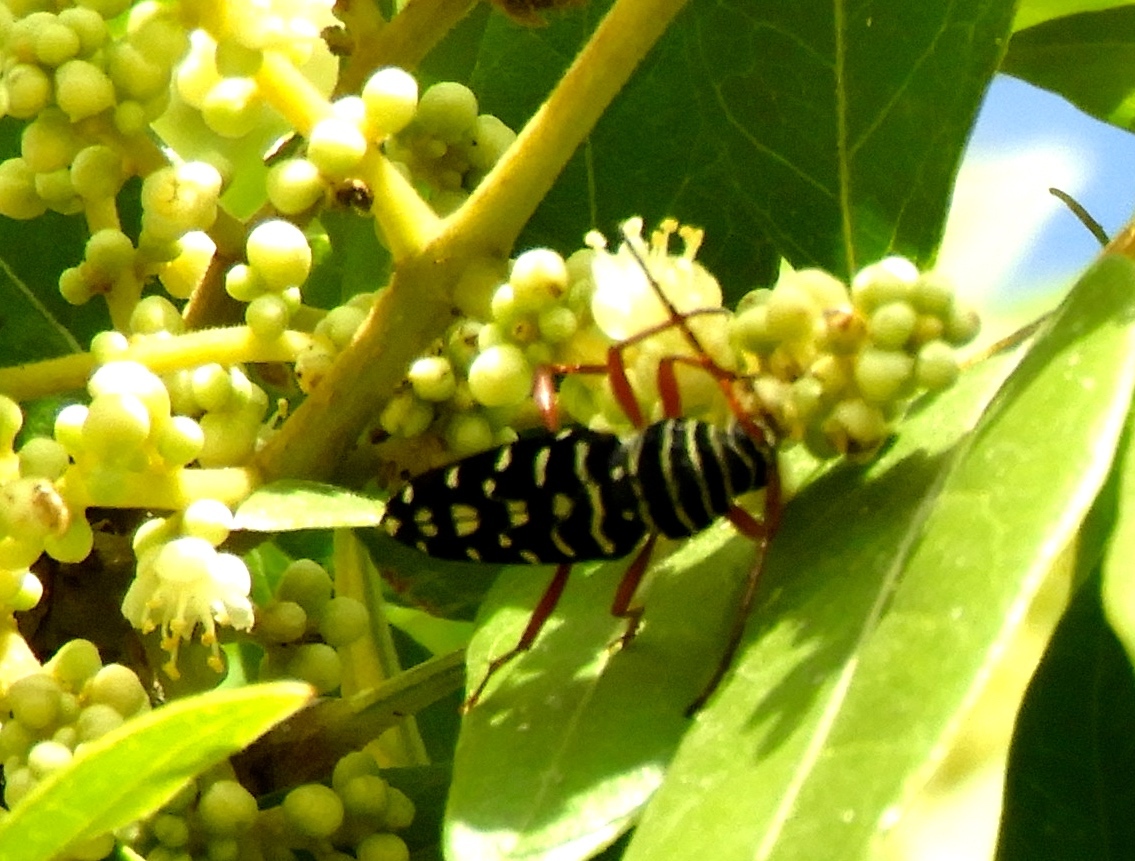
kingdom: Animalia
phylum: Arthropoda
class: Insecta
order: Coleoptera
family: Cerambycidae
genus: Placosternus
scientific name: Placosternus difficilis
